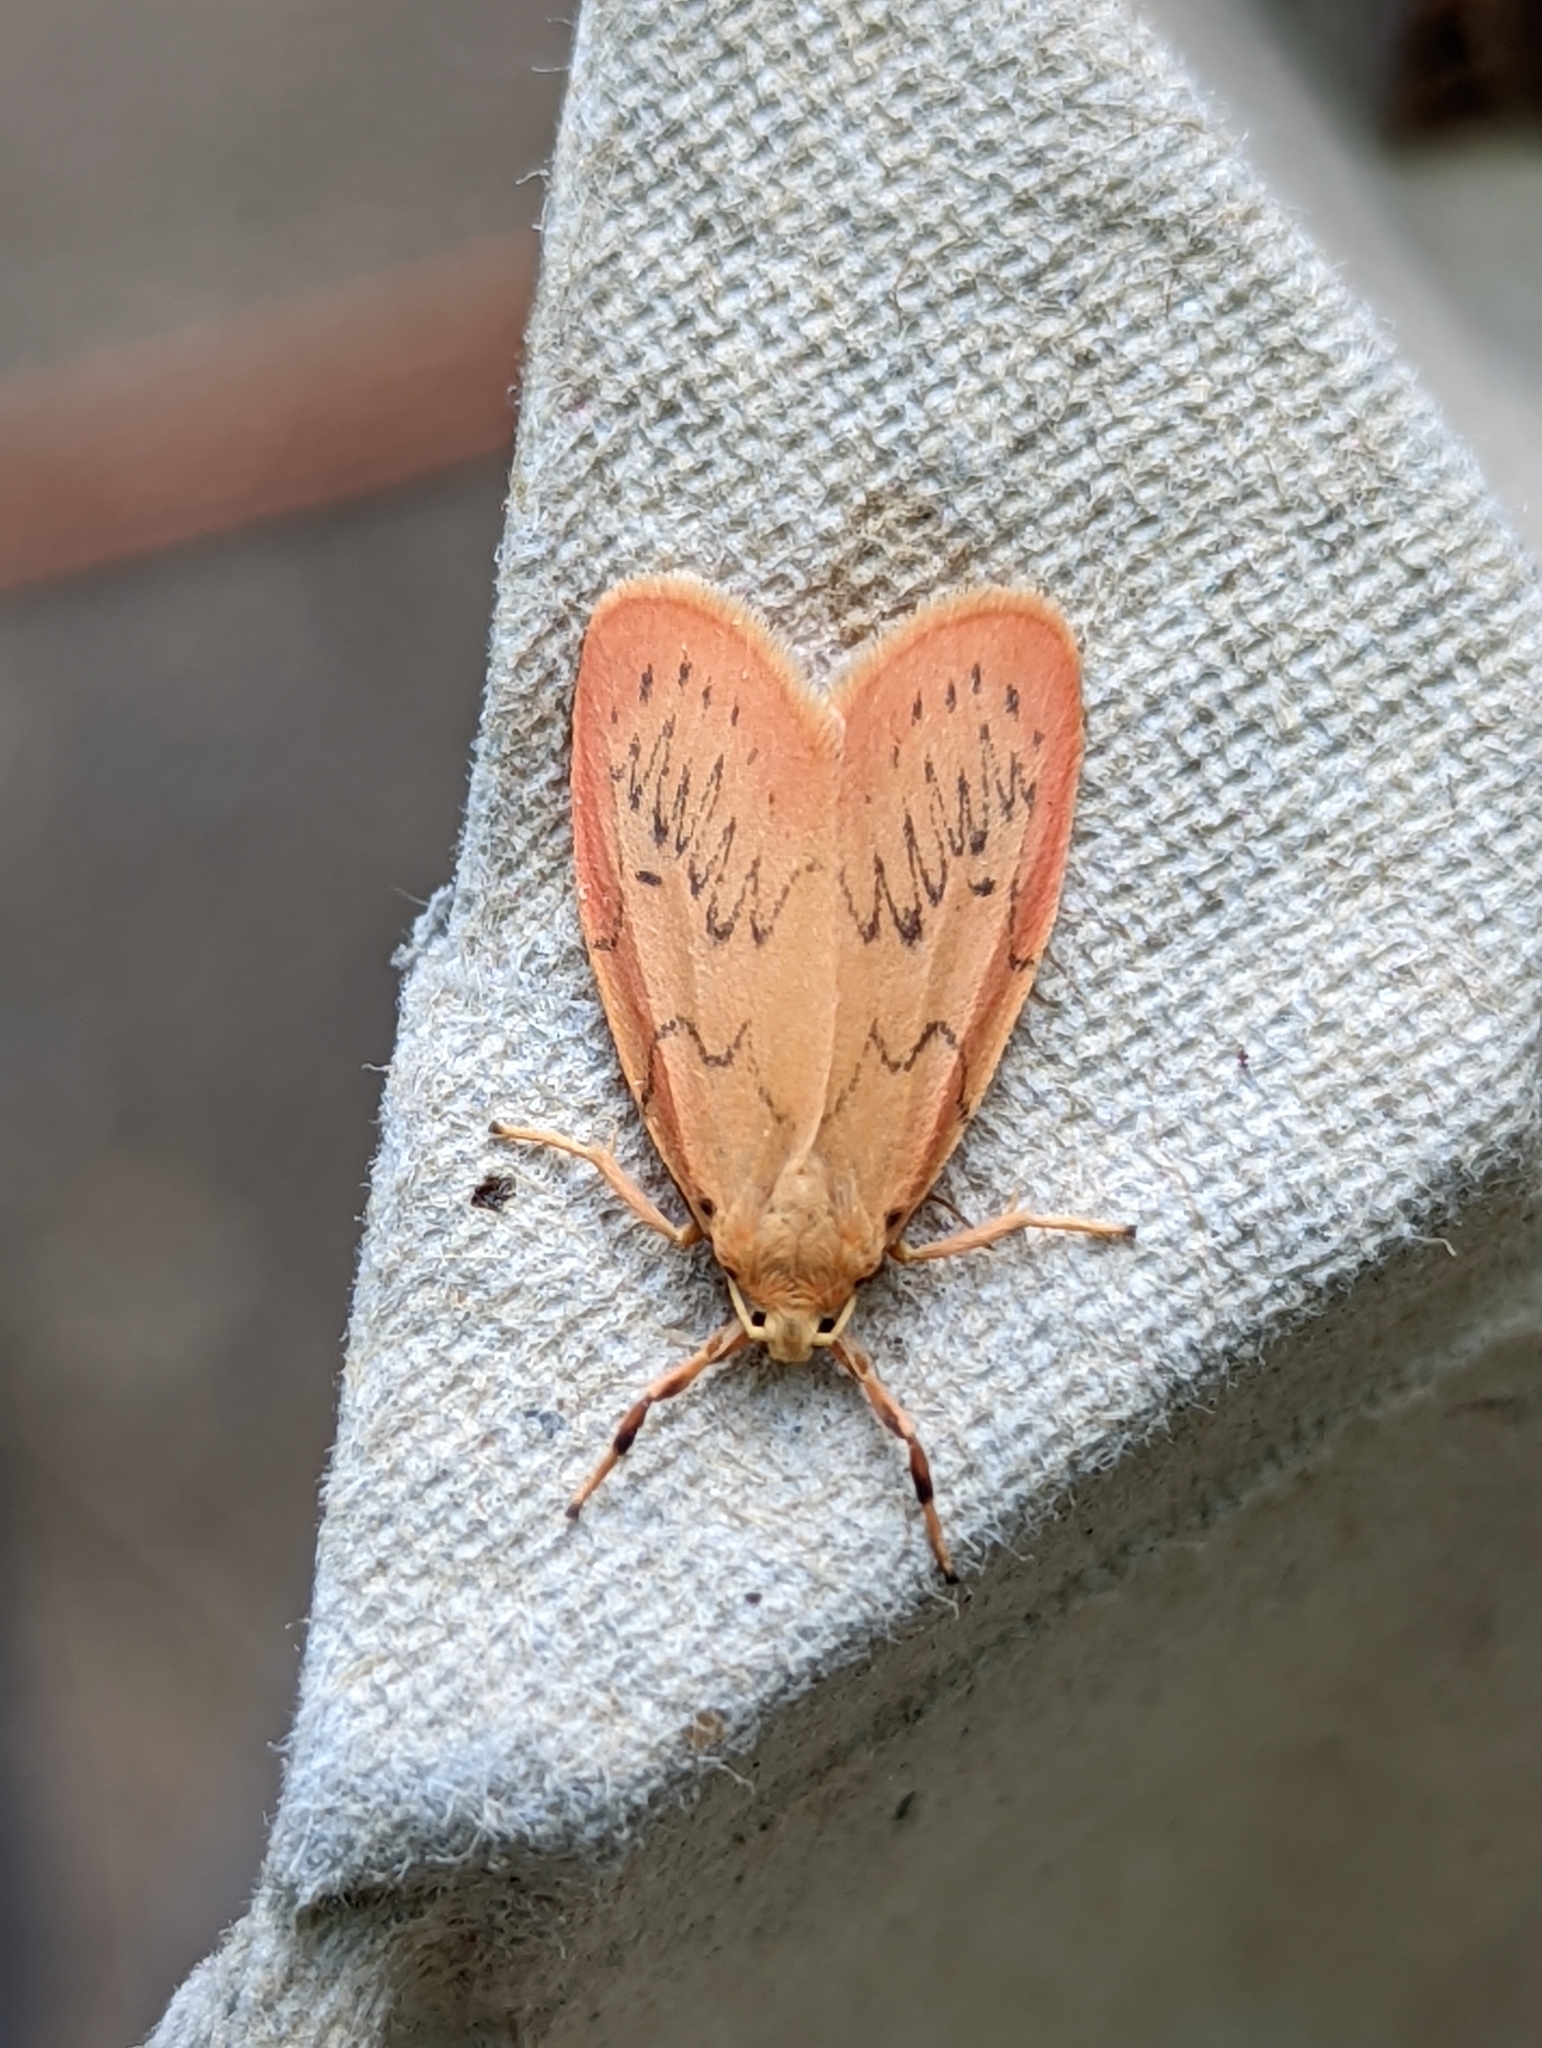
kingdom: Animalia
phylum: Arthropoda
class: Insecta
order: Lepidoptera
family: Erebidae
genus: Miltochrista
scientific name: Miltochrista miniata
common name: Rosy footman
